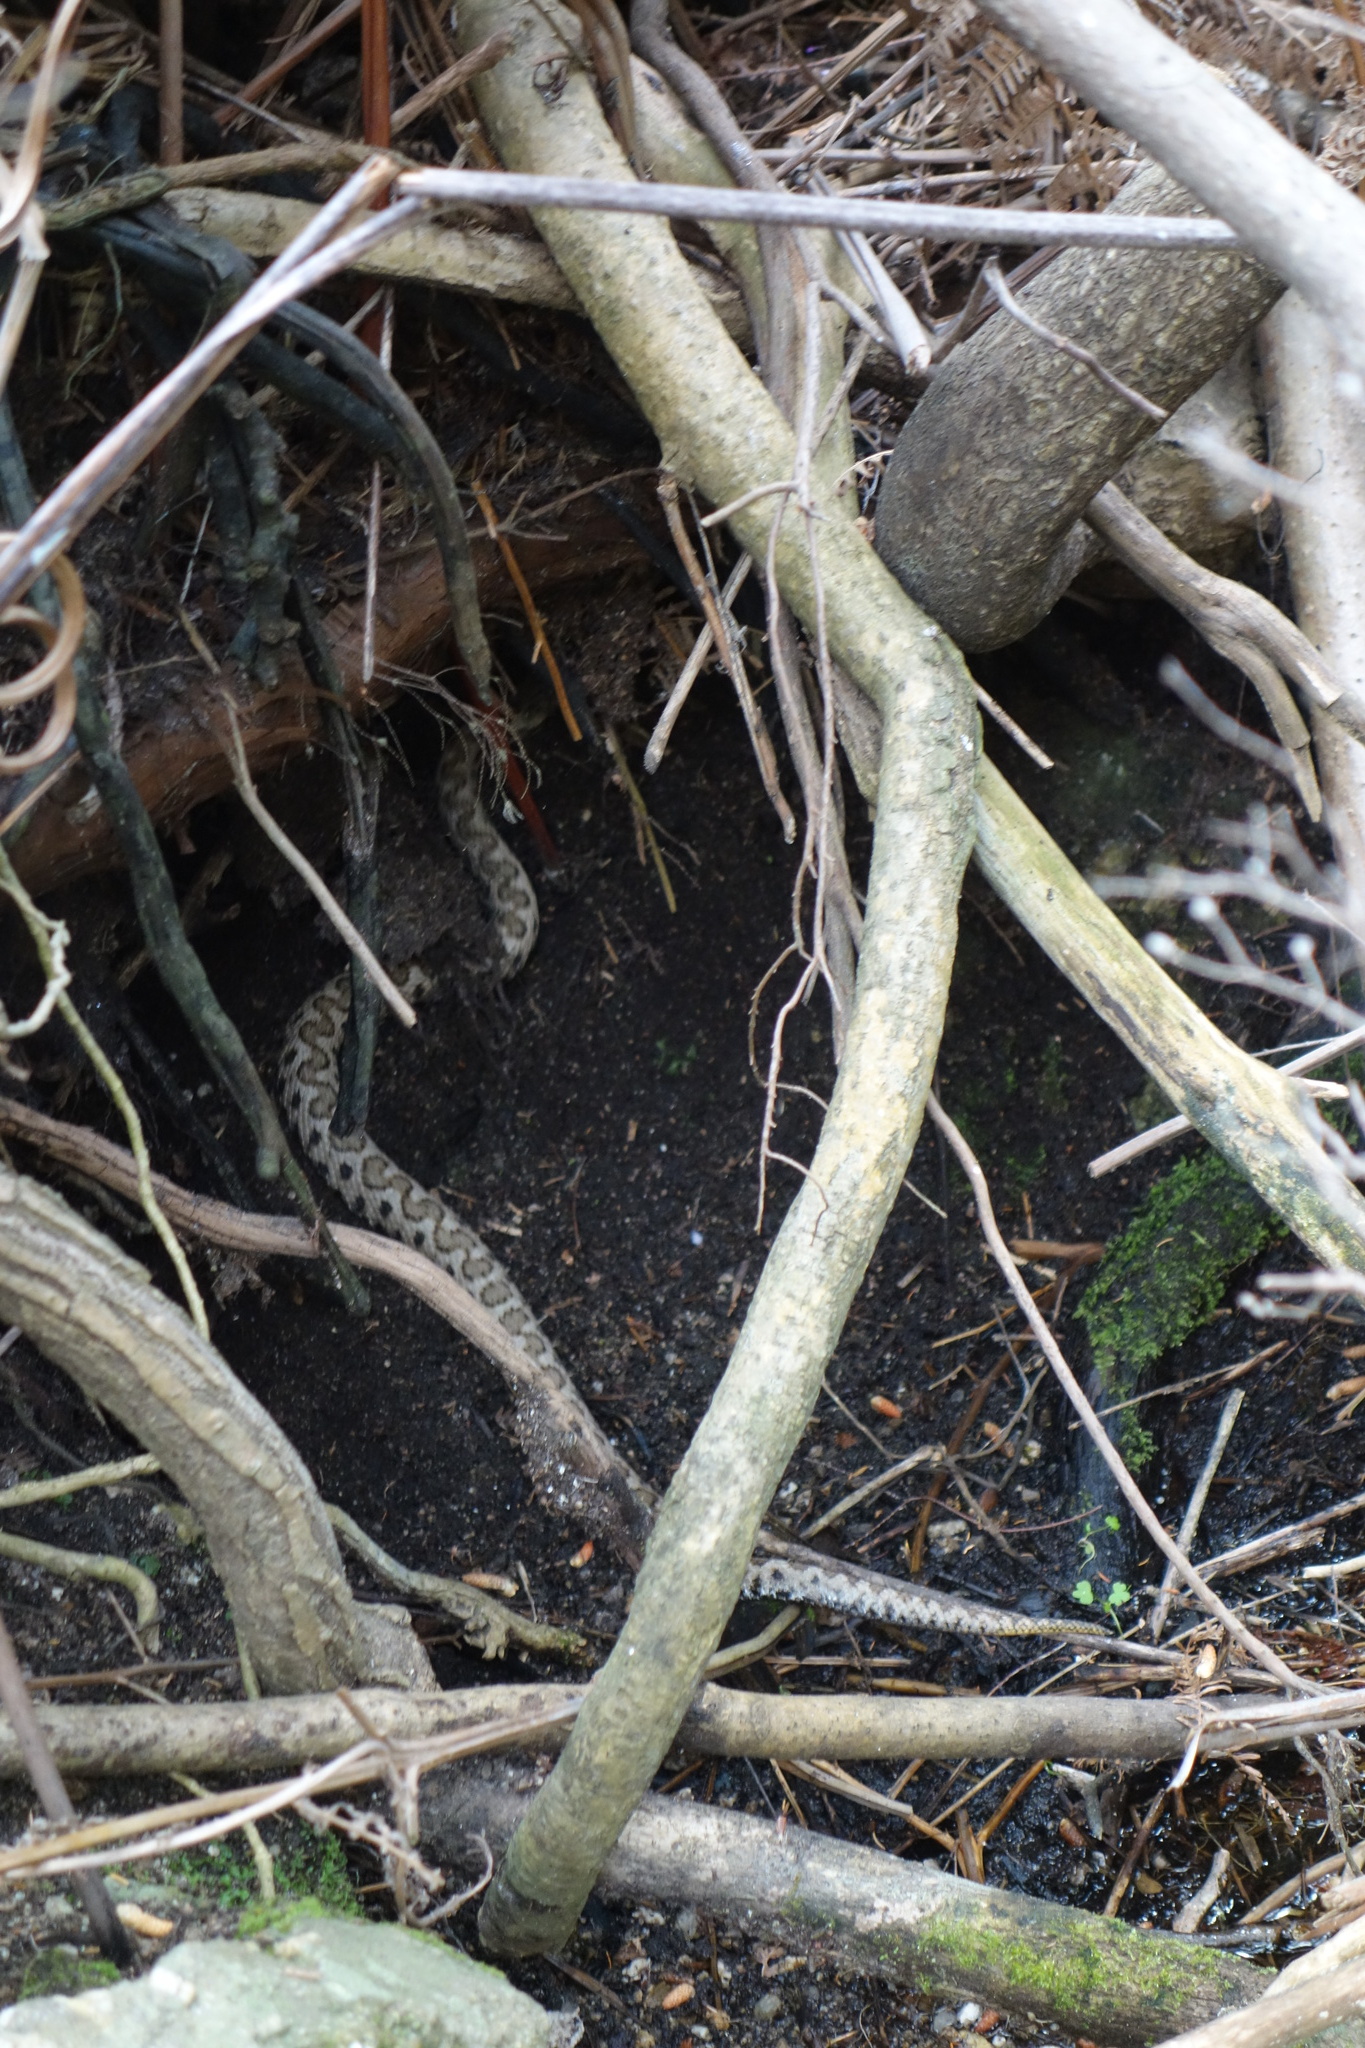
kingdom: Animalia
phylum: Chordata
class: Squamata
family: Viperidae
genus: Vipera
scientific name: Vipera aspis
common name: Asp viper
